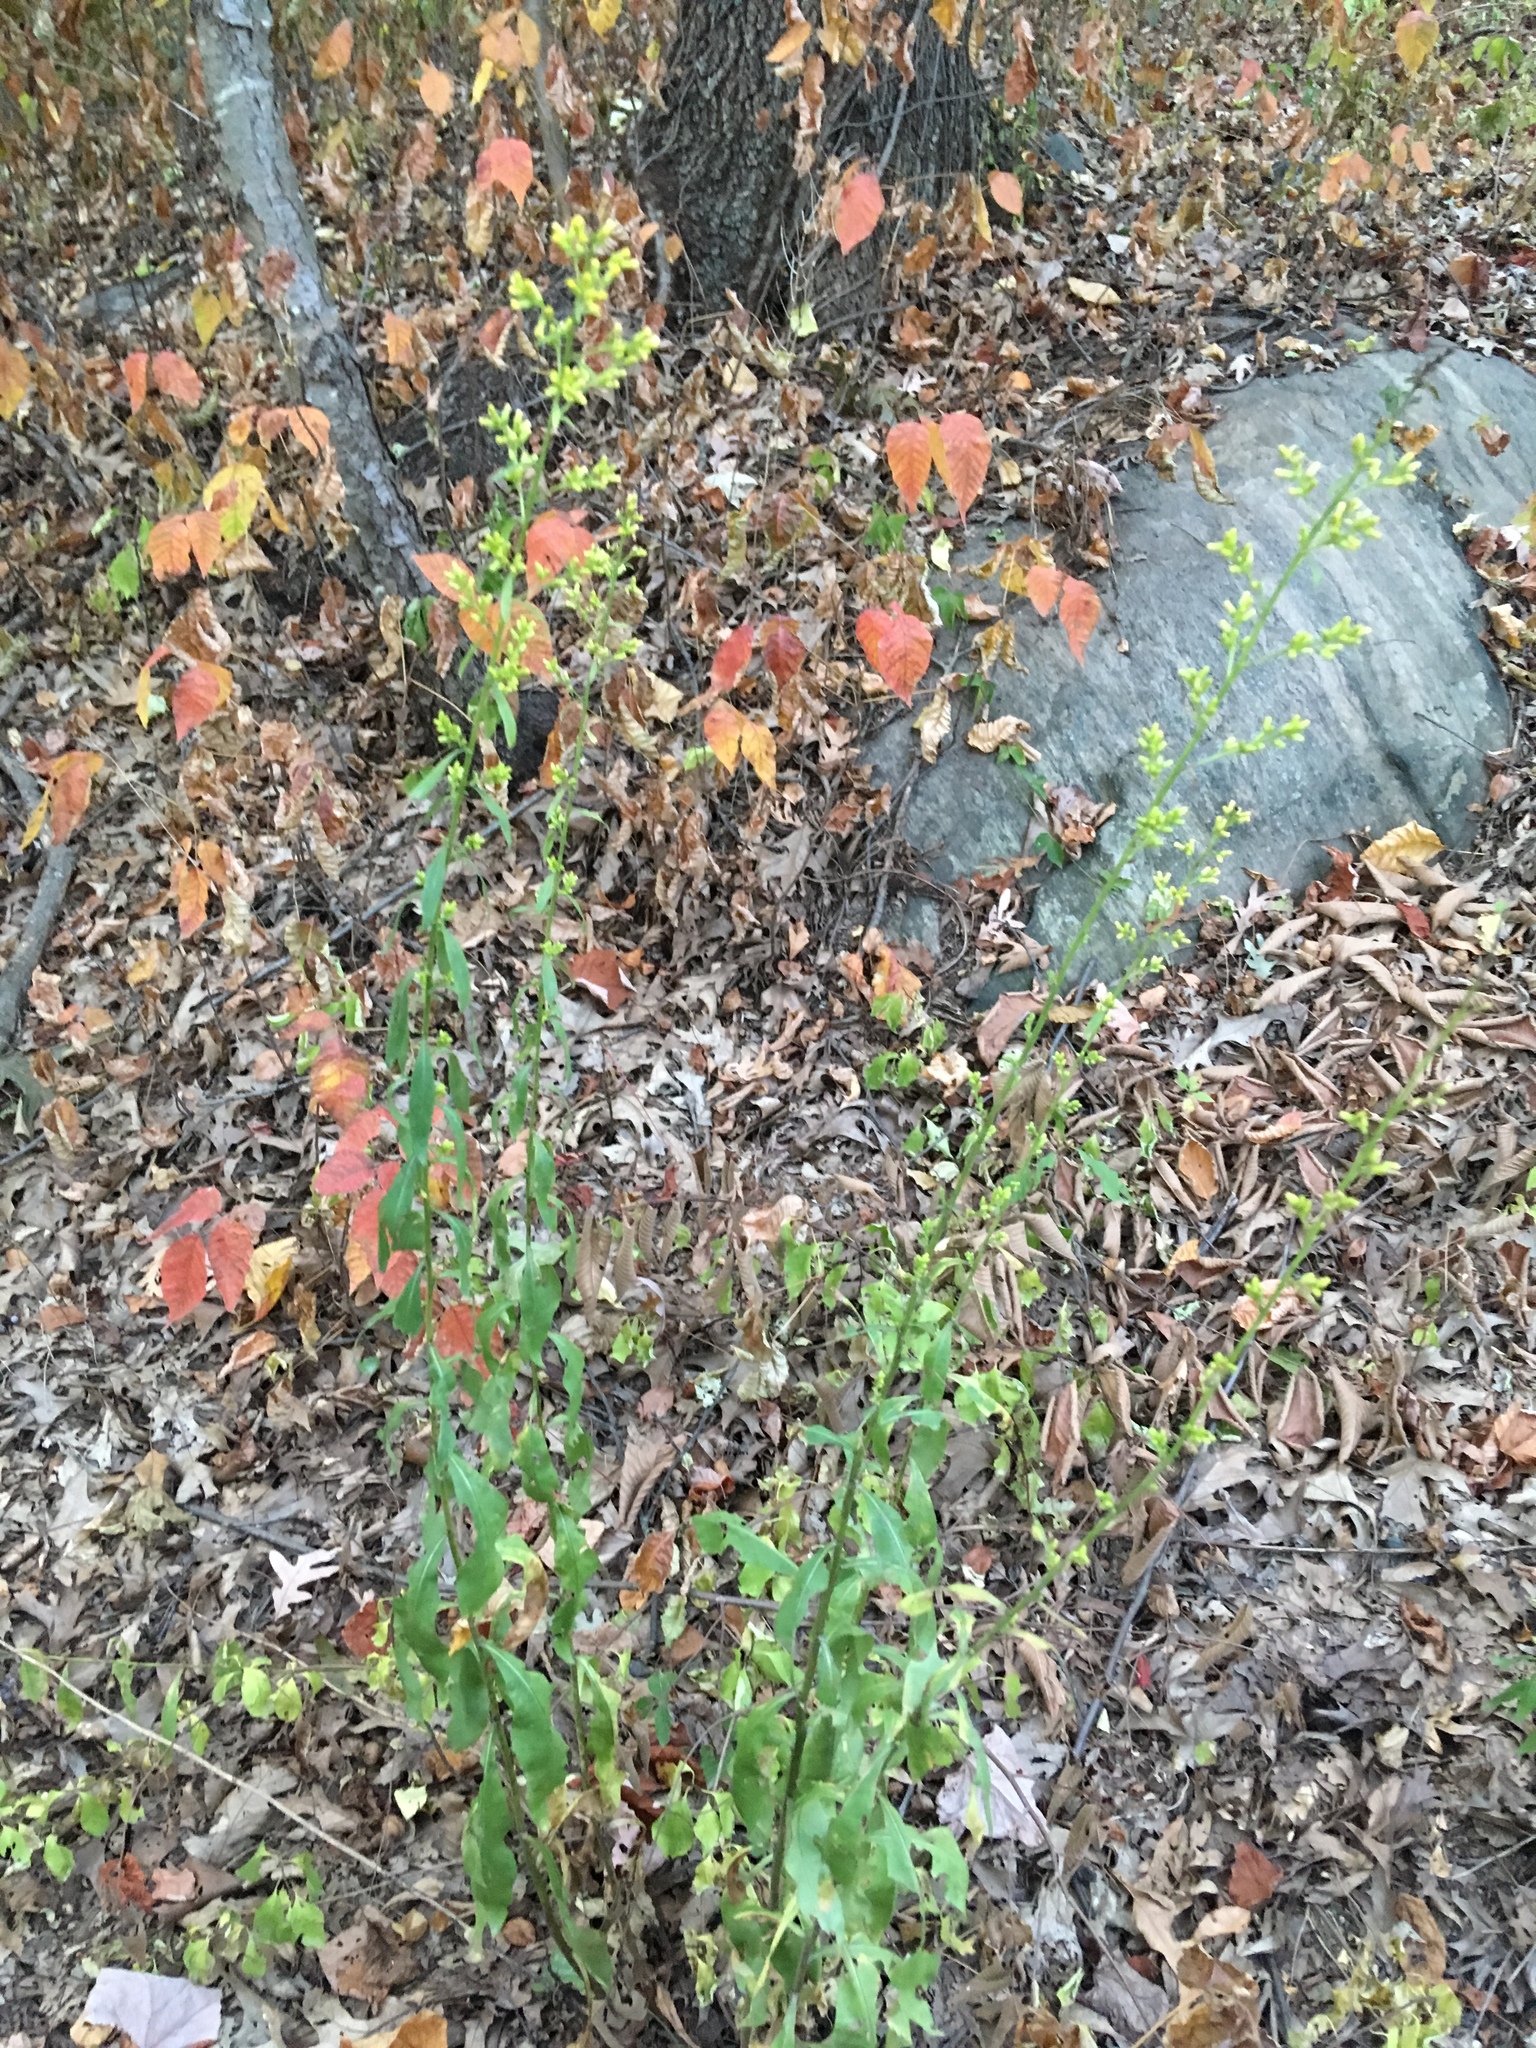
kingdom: Plantae
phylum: Tracheophyta
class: Magnoliopsida
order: Asterales
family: Asteraceae
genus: Solidago
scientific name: Solidago speciosa
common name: Showy goldenrod
